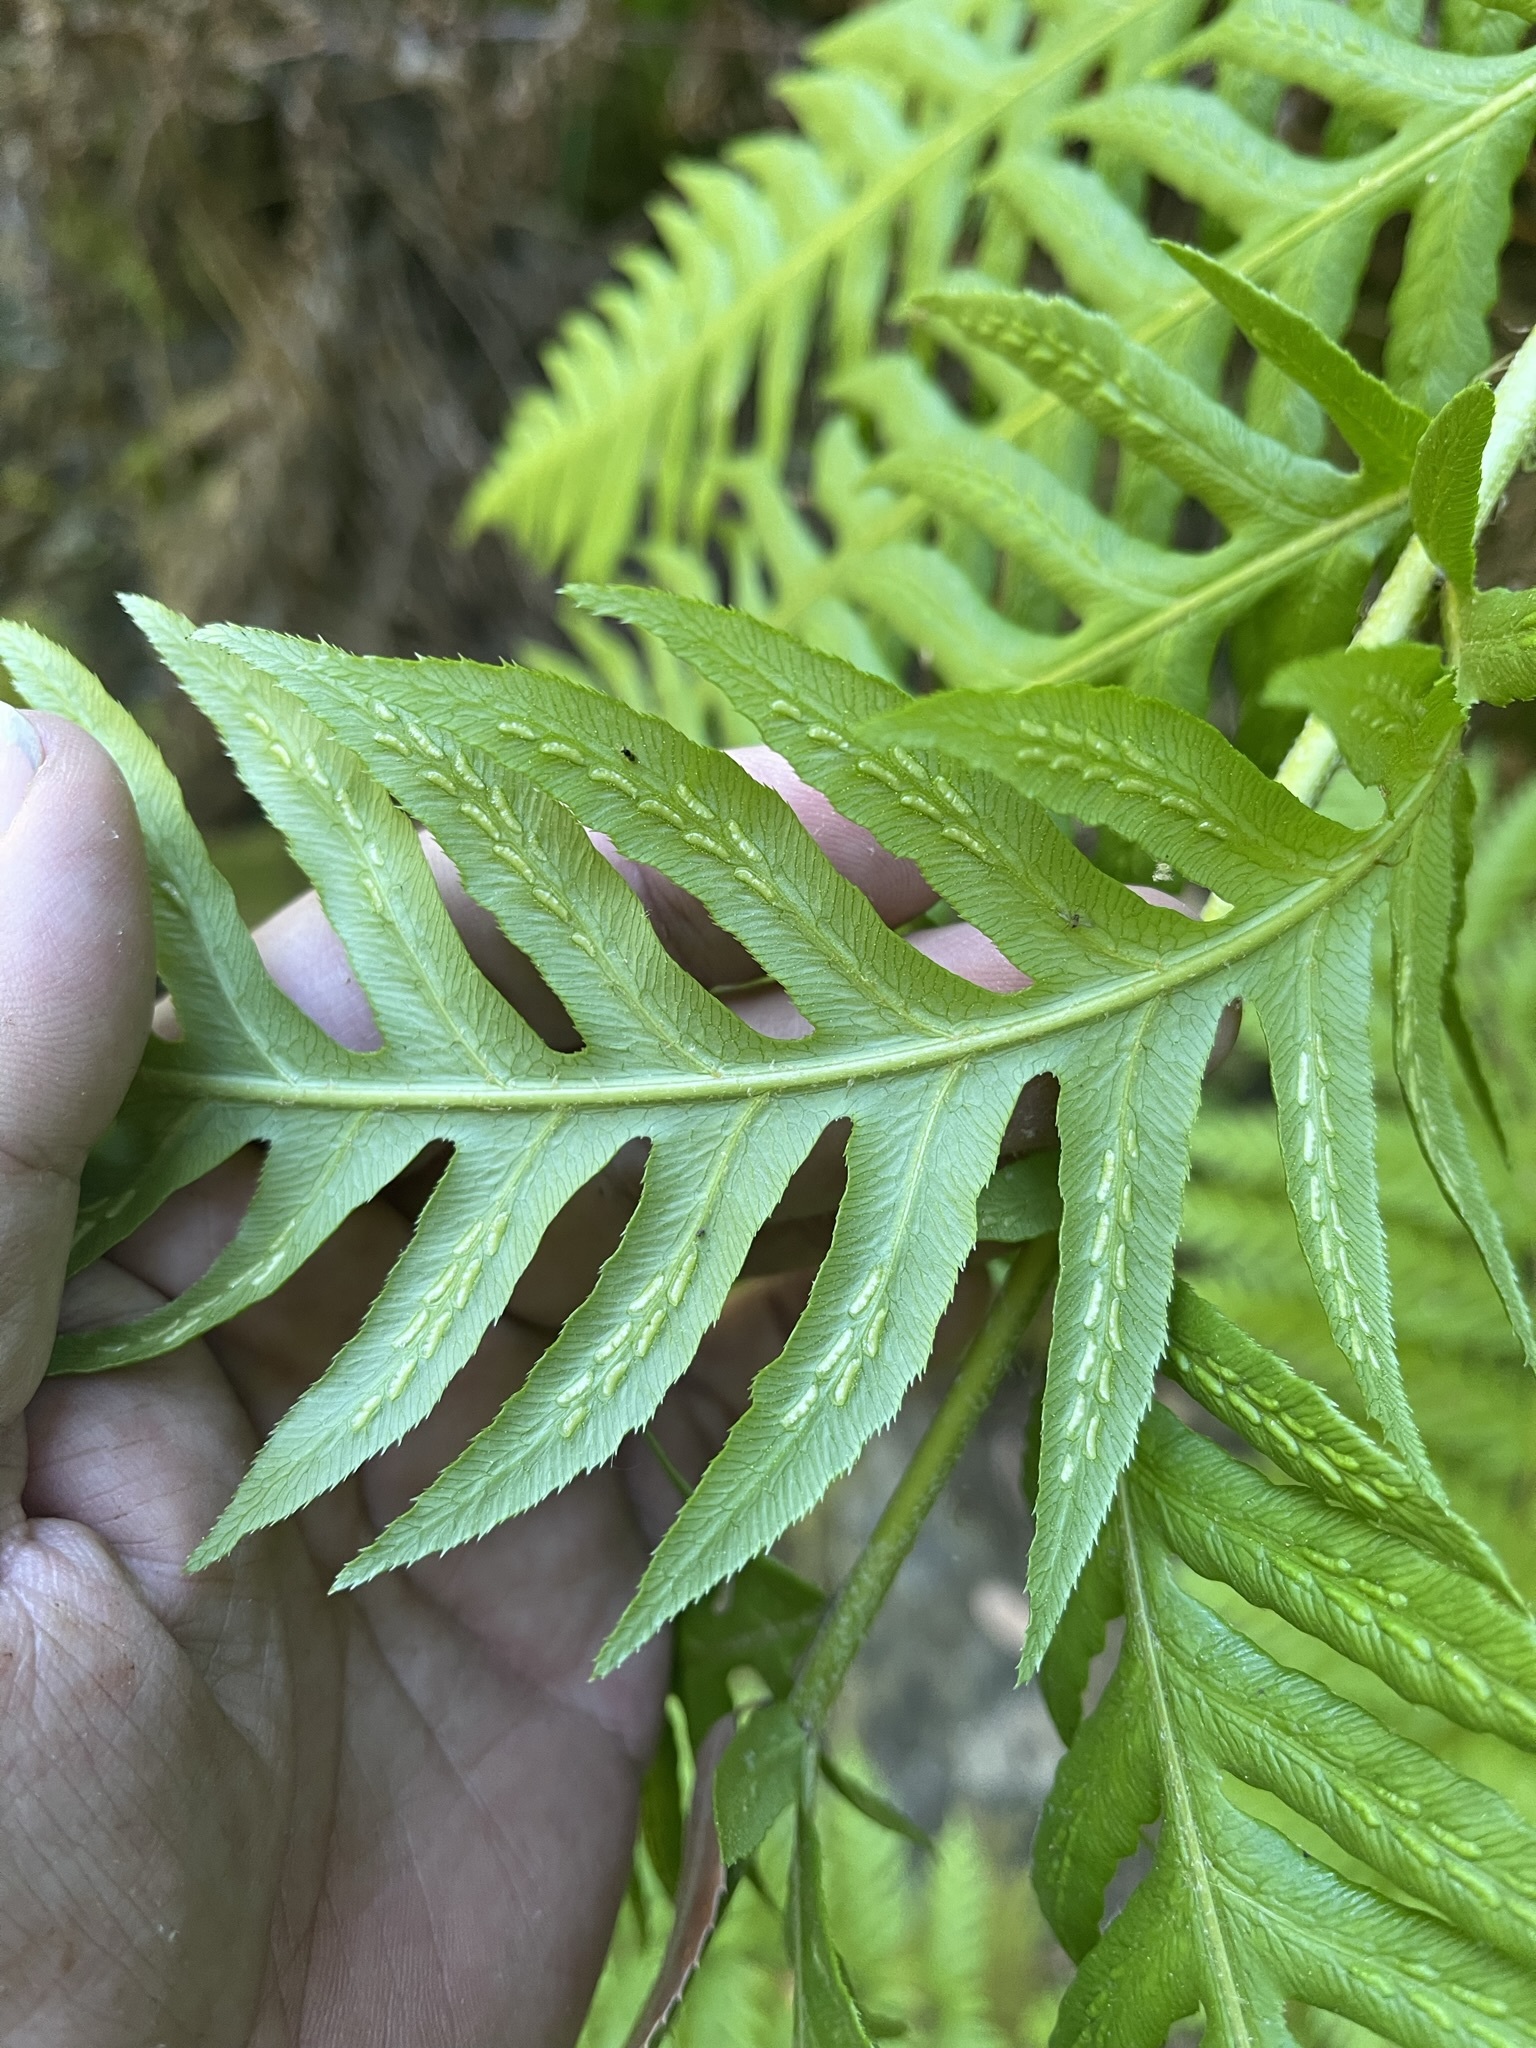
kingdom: Plantae
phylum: Tracheophyta
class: Polypodiopsida
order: Polypodiales
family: Blechnaceae
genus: Woodwardia
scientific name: Woodwardia fimbriata
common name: Giant chain fern
